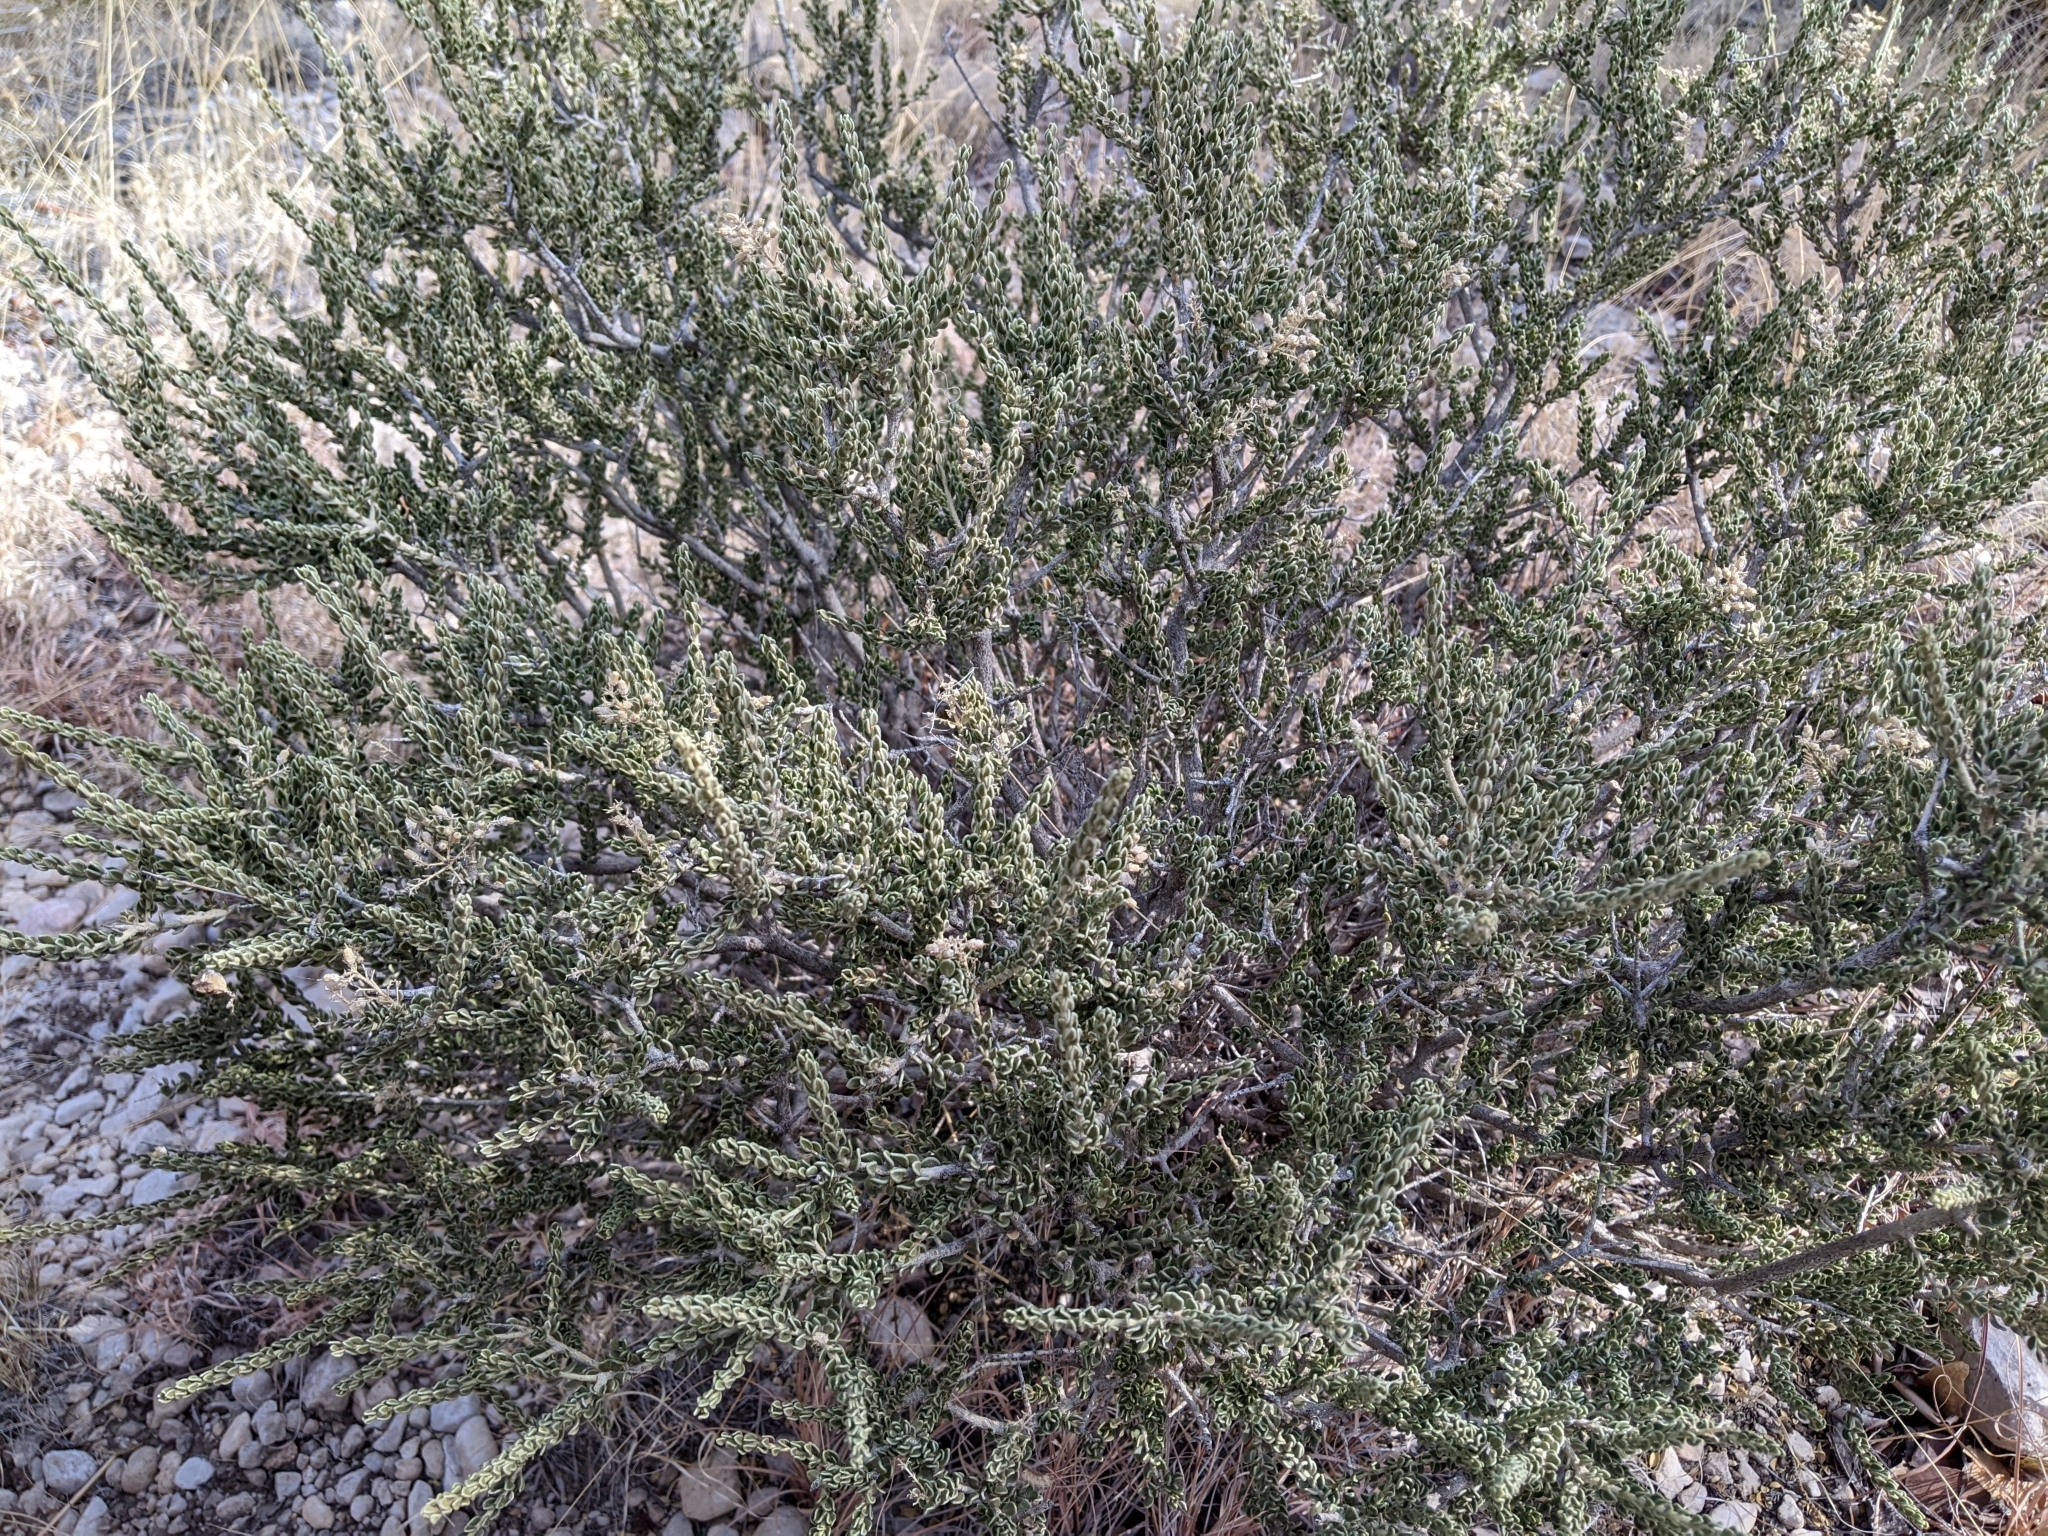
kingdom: Plantae
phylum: Tracheophyta
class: Magnoliopsida
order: Celastrales
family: Celastraceae
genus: Mortonia
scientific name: Mortonia scabrella
